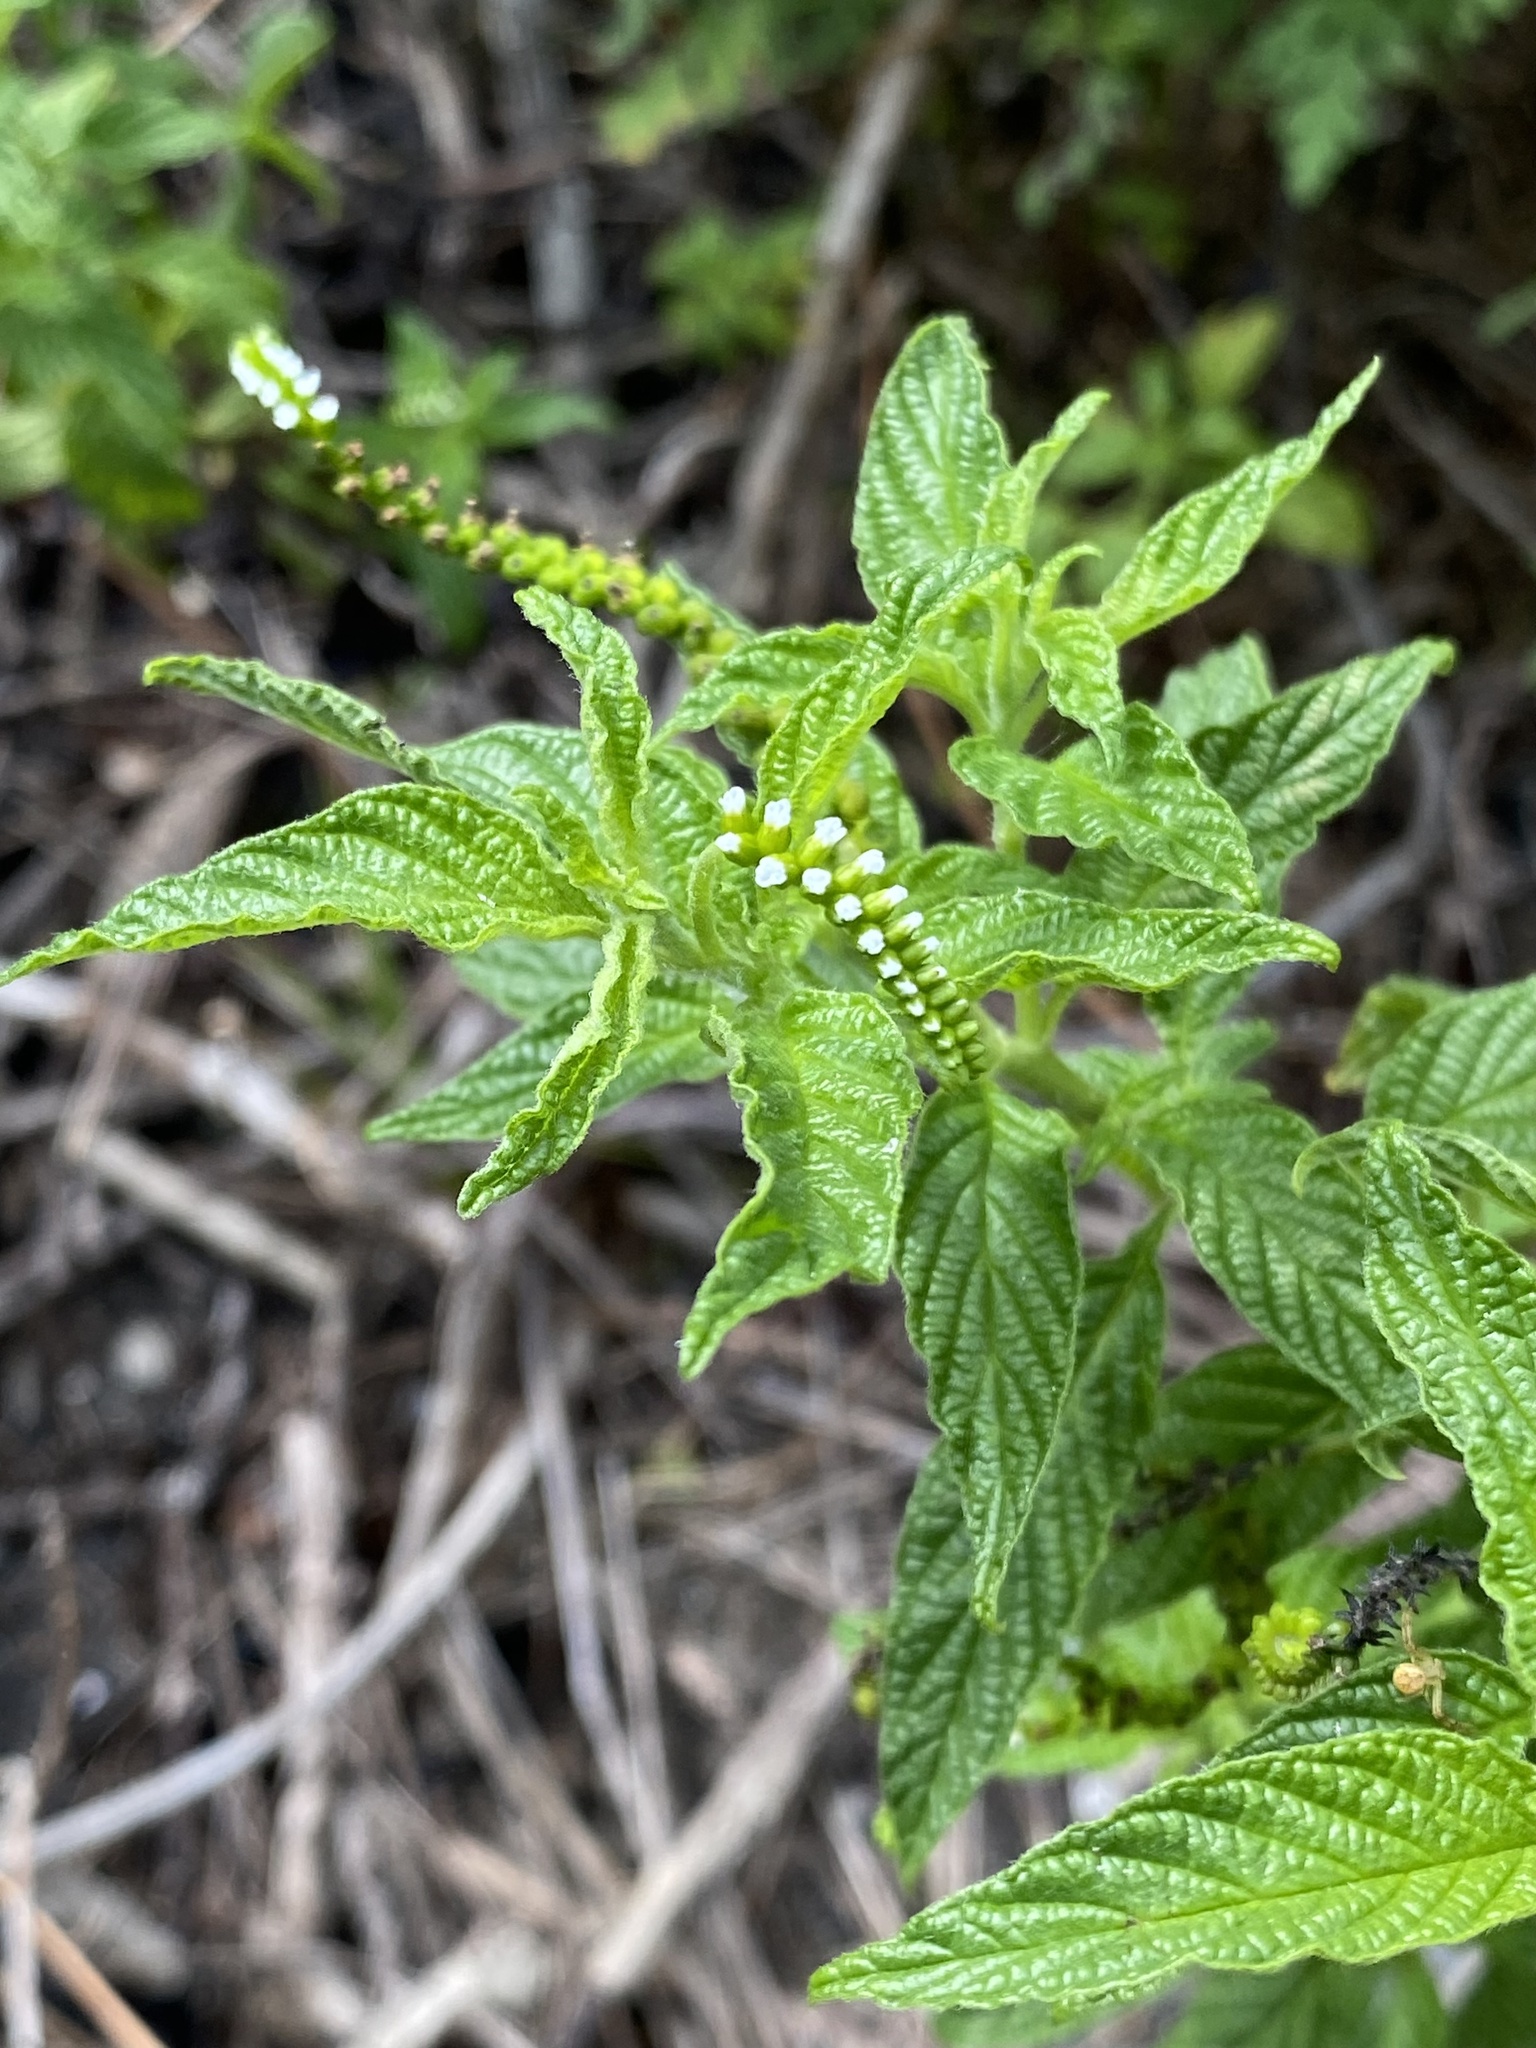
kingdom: Plantae
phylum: Tracheophyta
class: Magnoliopsida
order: Boraginales
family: Heliotropiaceae
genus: Heliotropium
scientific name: Heliotropium angiospermum
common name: Eye bright
